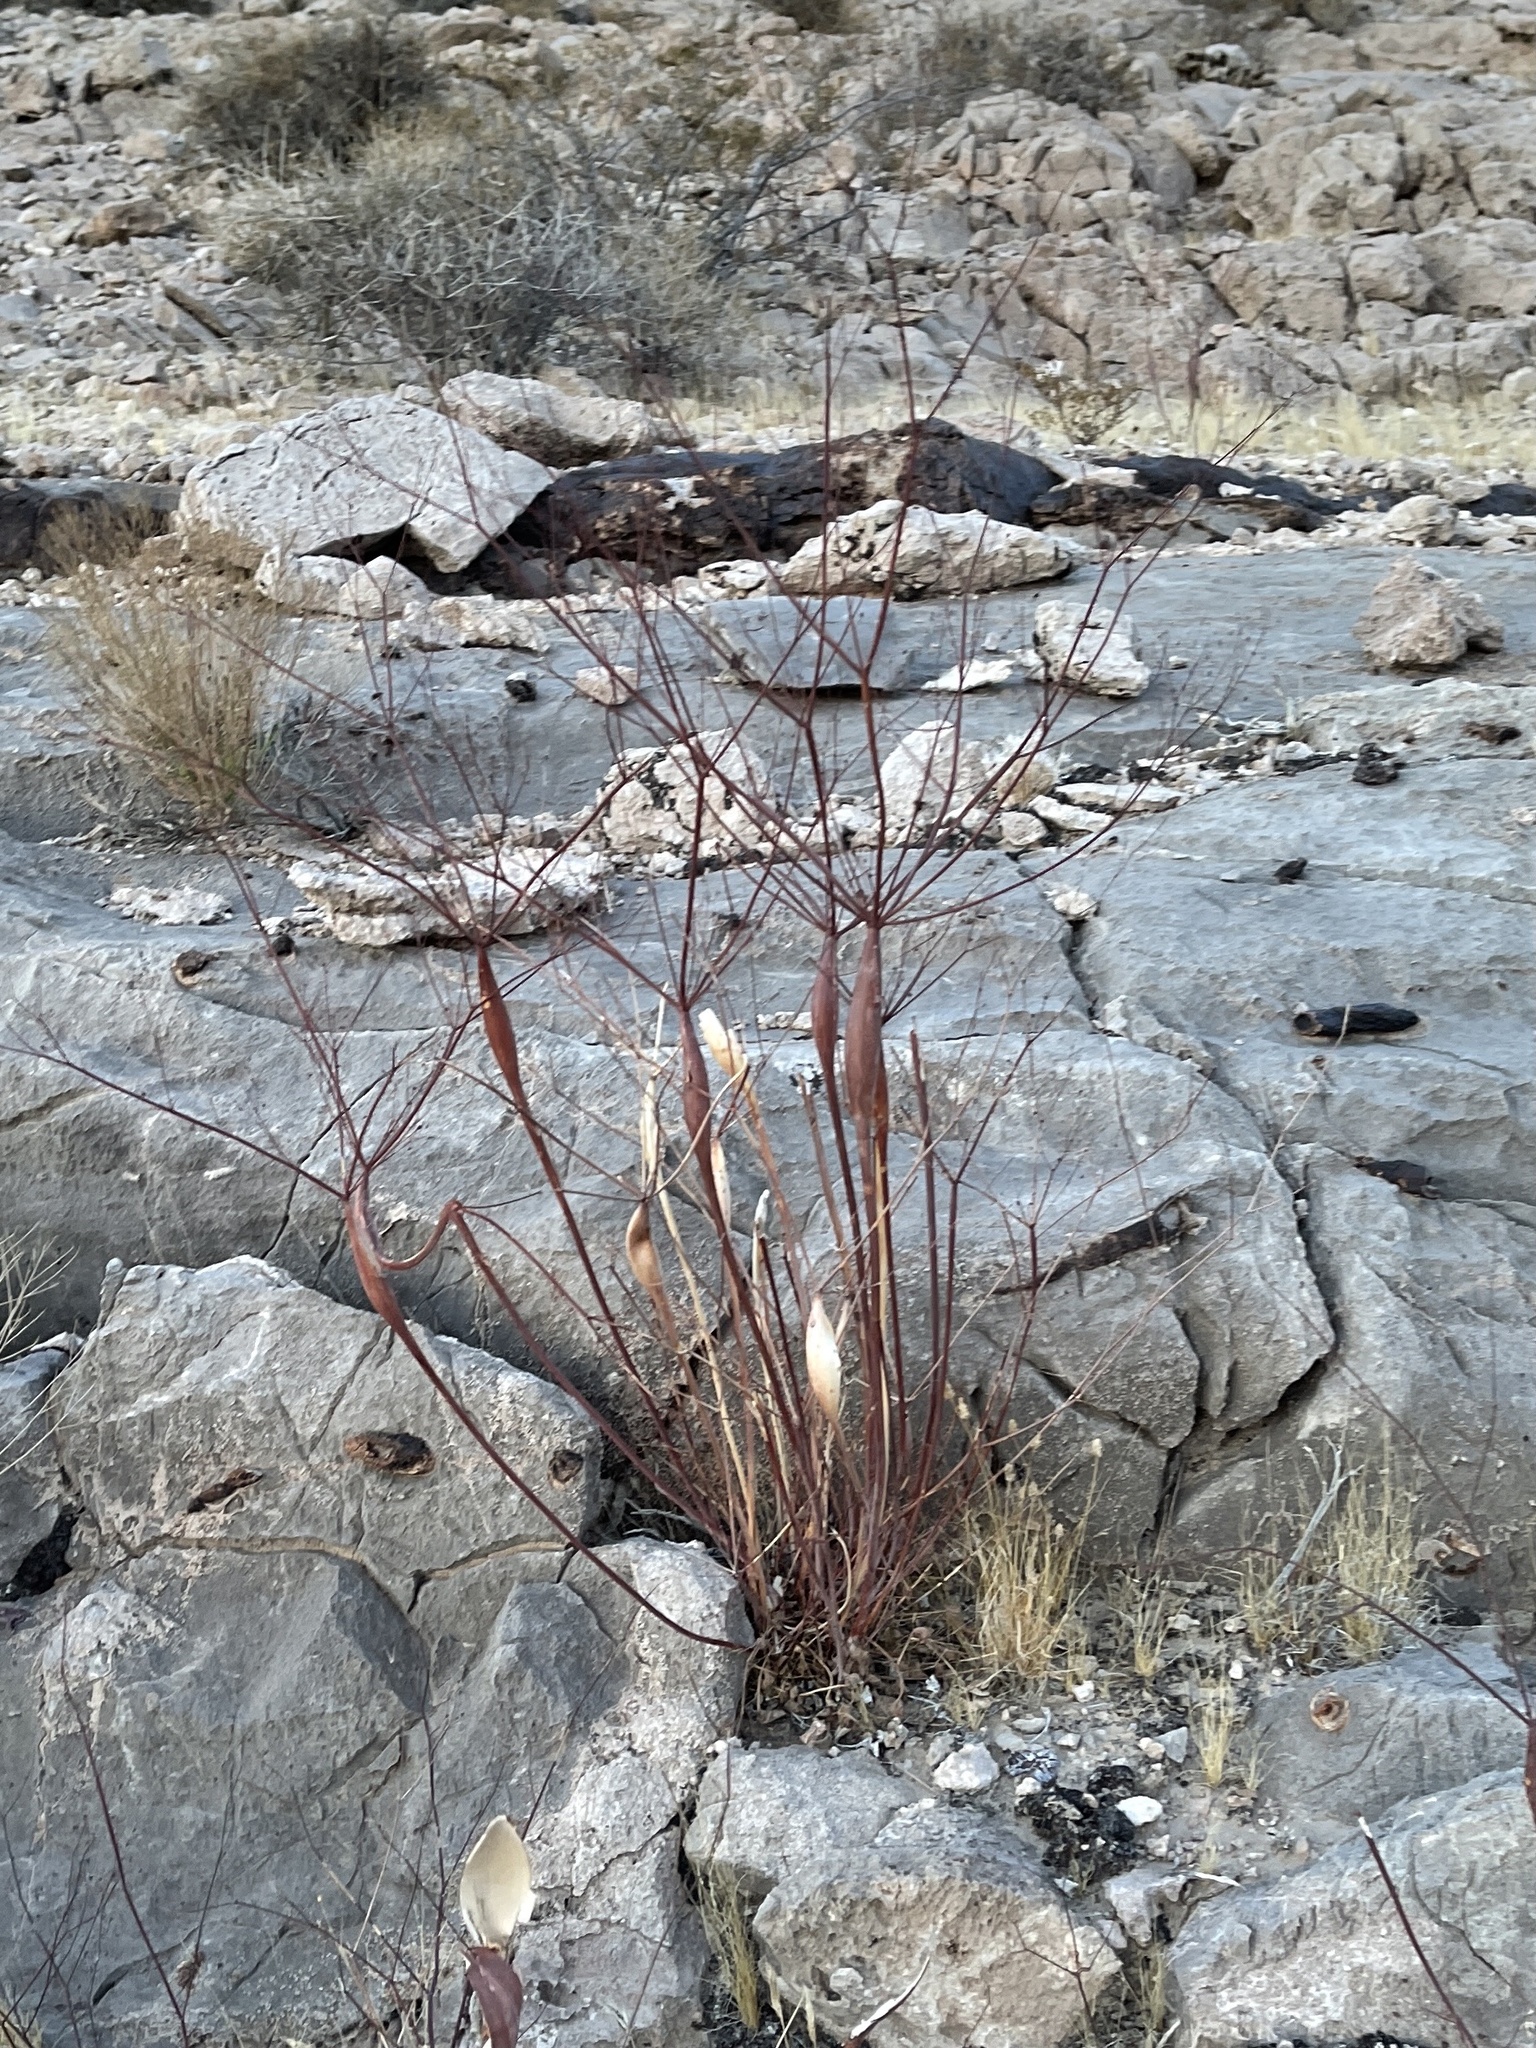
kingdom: Plantae
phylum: Tracheophyta
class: Magnoliopsida
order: Caryophyllales
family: Polygonaceae
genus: Eriogonum
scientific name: Eriogonum inflatum
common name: Desert trumpet
